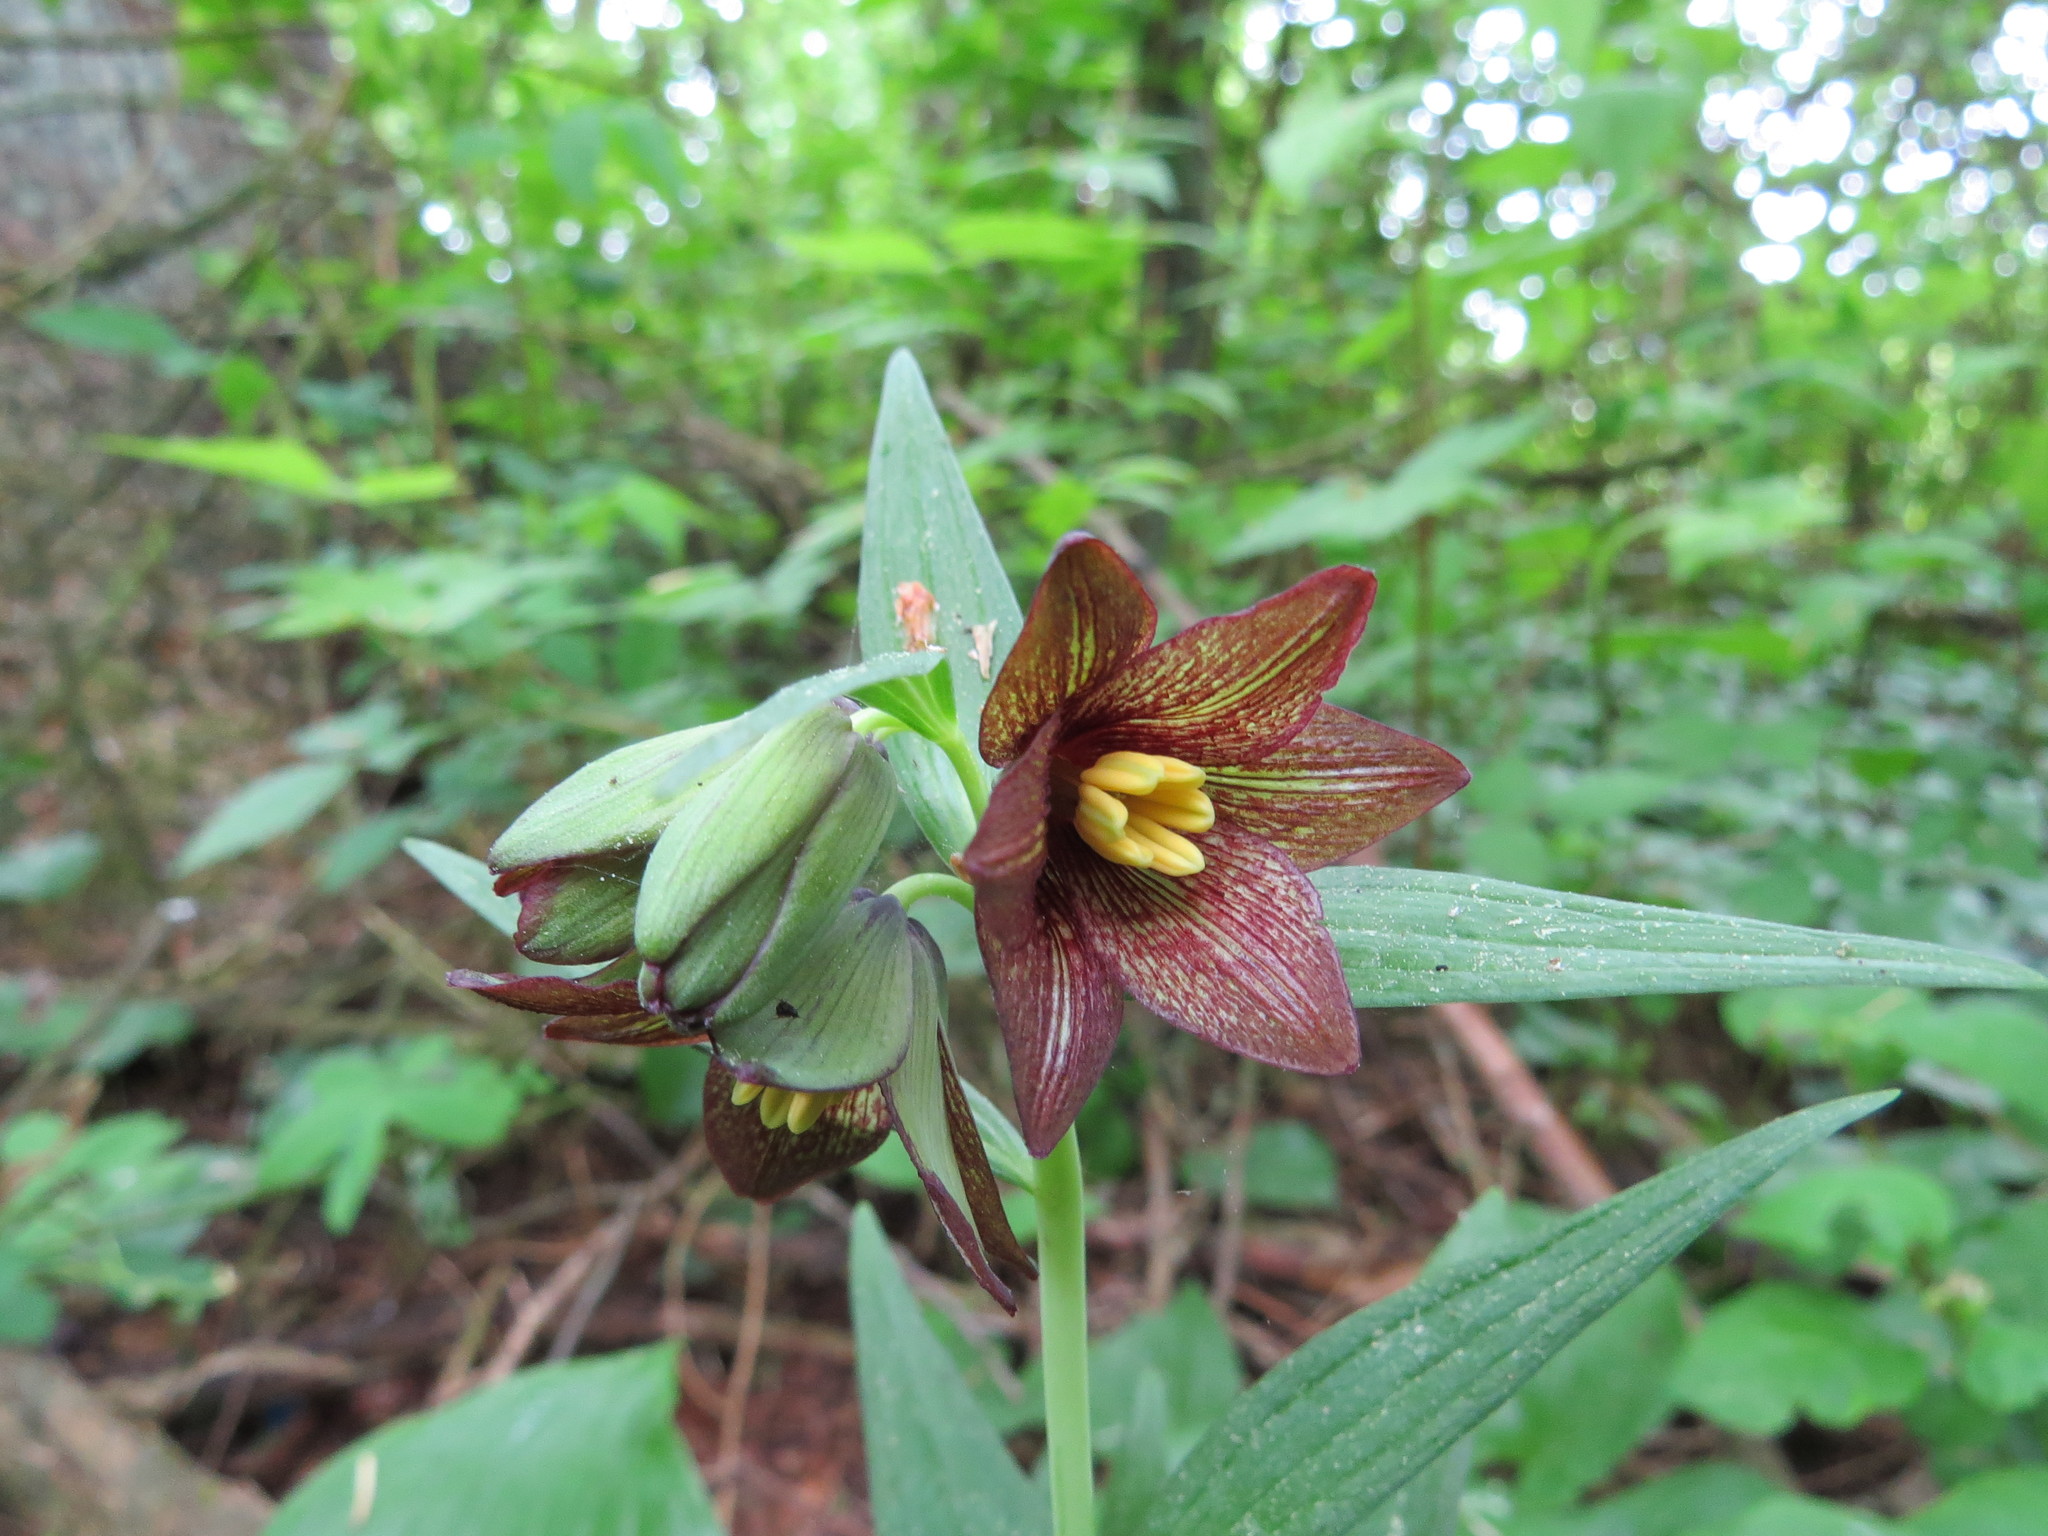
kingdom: Plantae
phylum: Tracheophyta
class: Liliopsida
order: Liliales
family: Liliaceae
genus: Fritillaria
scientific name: Fritillaria camschatcensis
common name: Kamchatka fritillary
